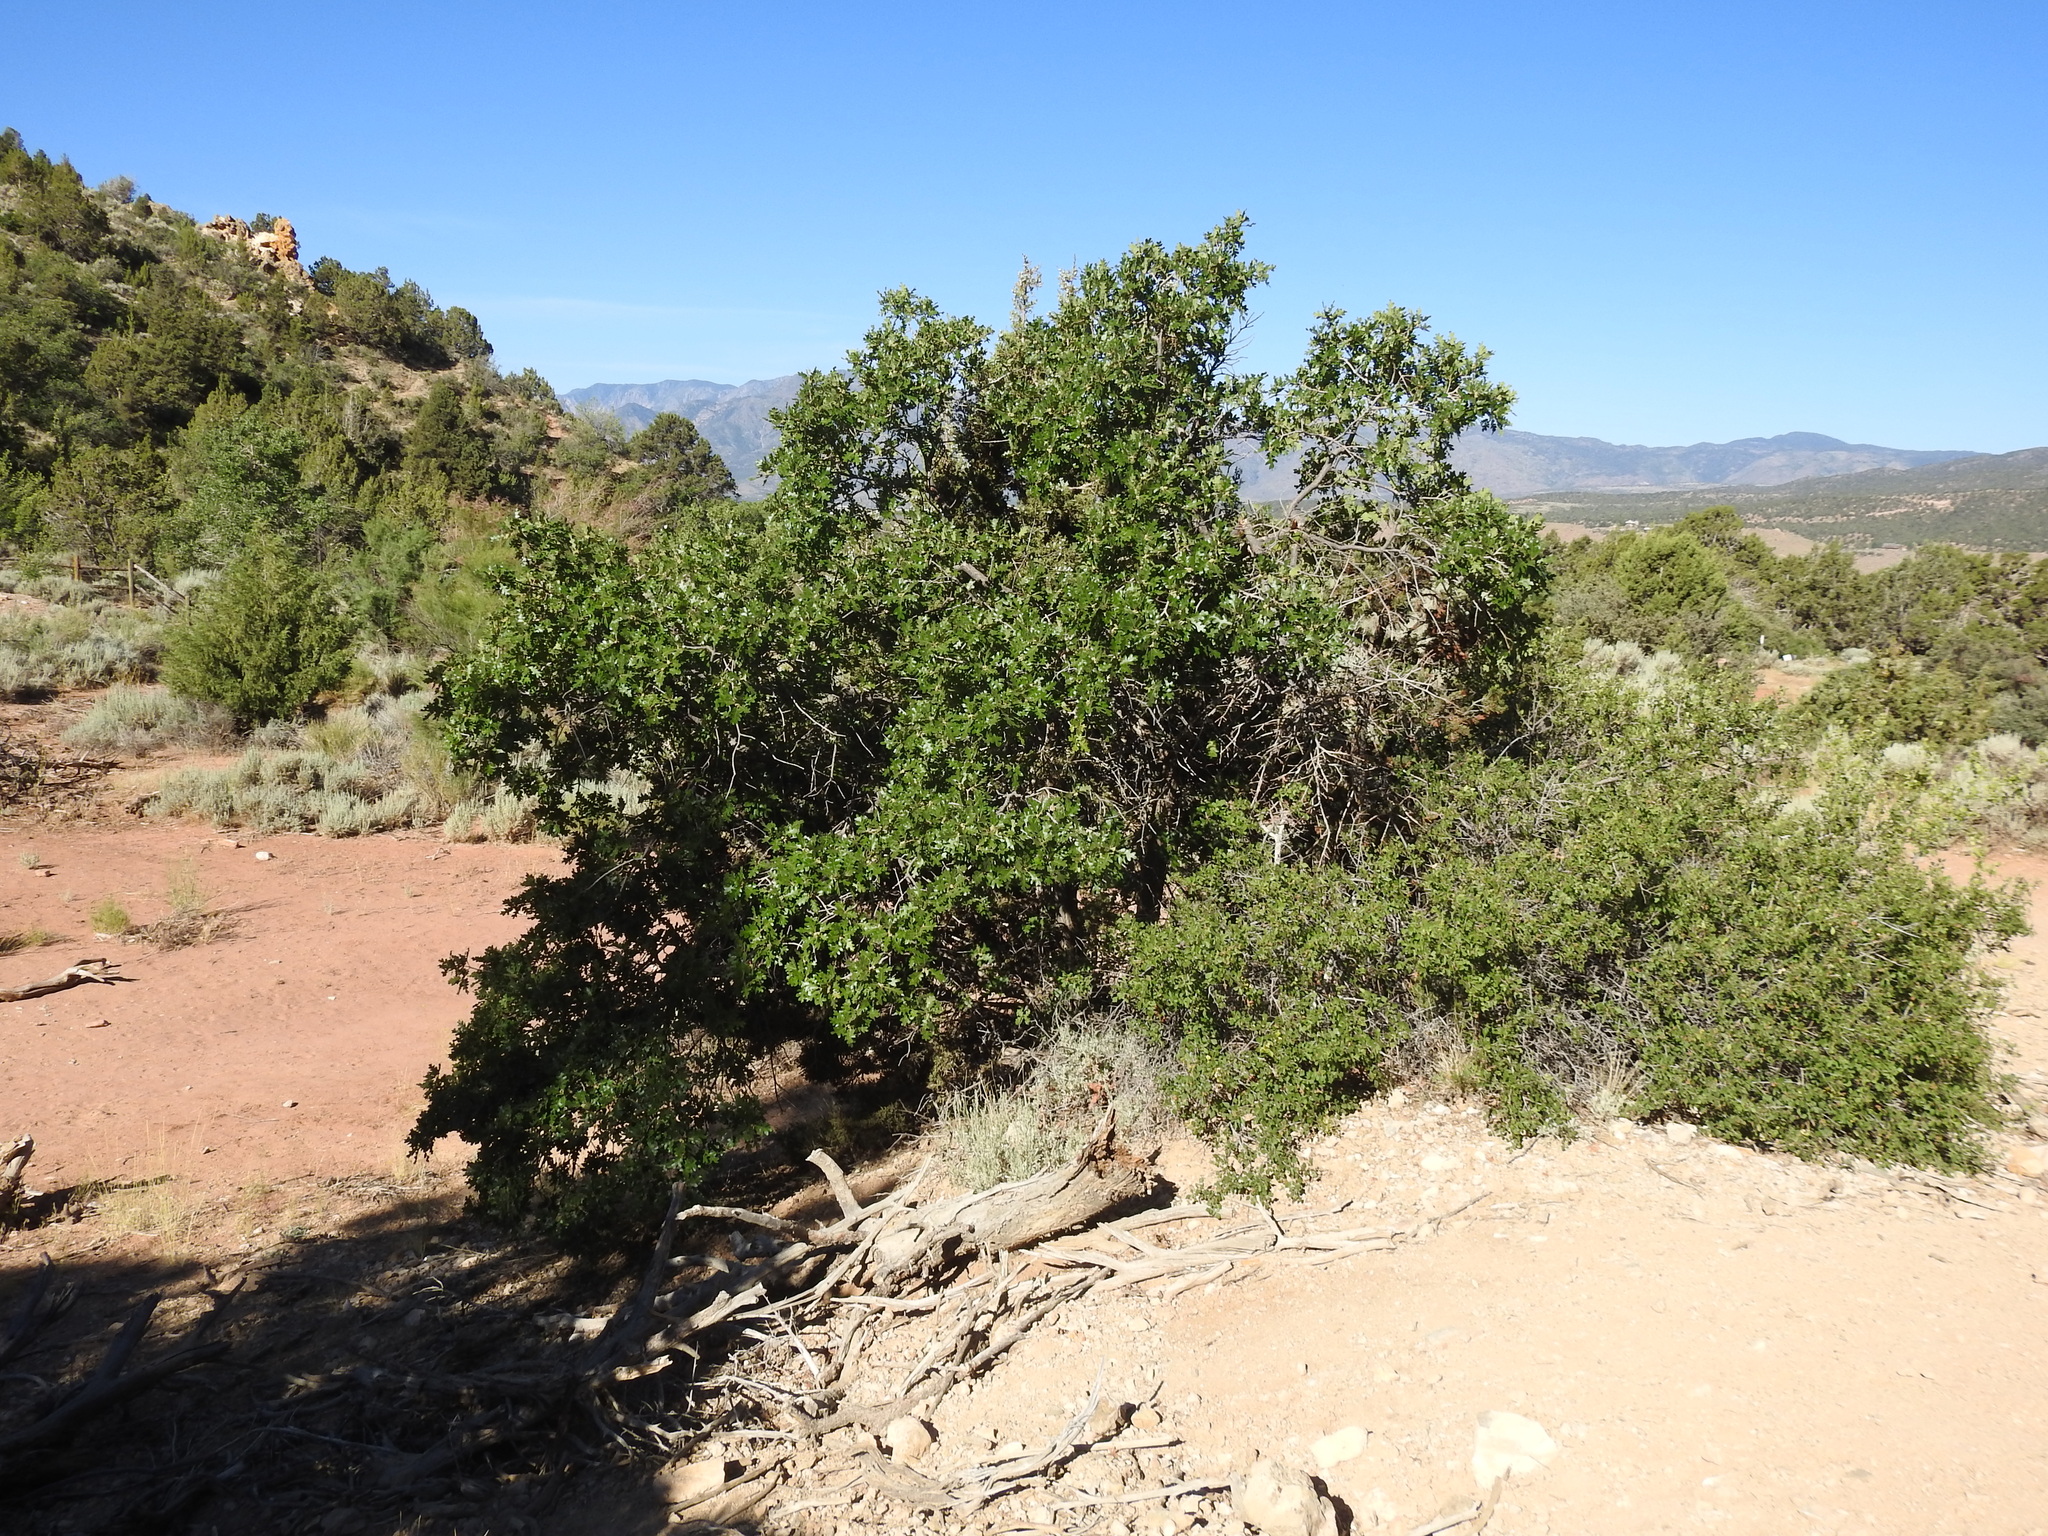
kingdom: Plantae
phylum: Tracheophyta
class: Magnoliopsida
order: Fagales
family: Fagaceae
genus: Quercus
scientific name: Quercus gambelii
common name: Gambel oak
